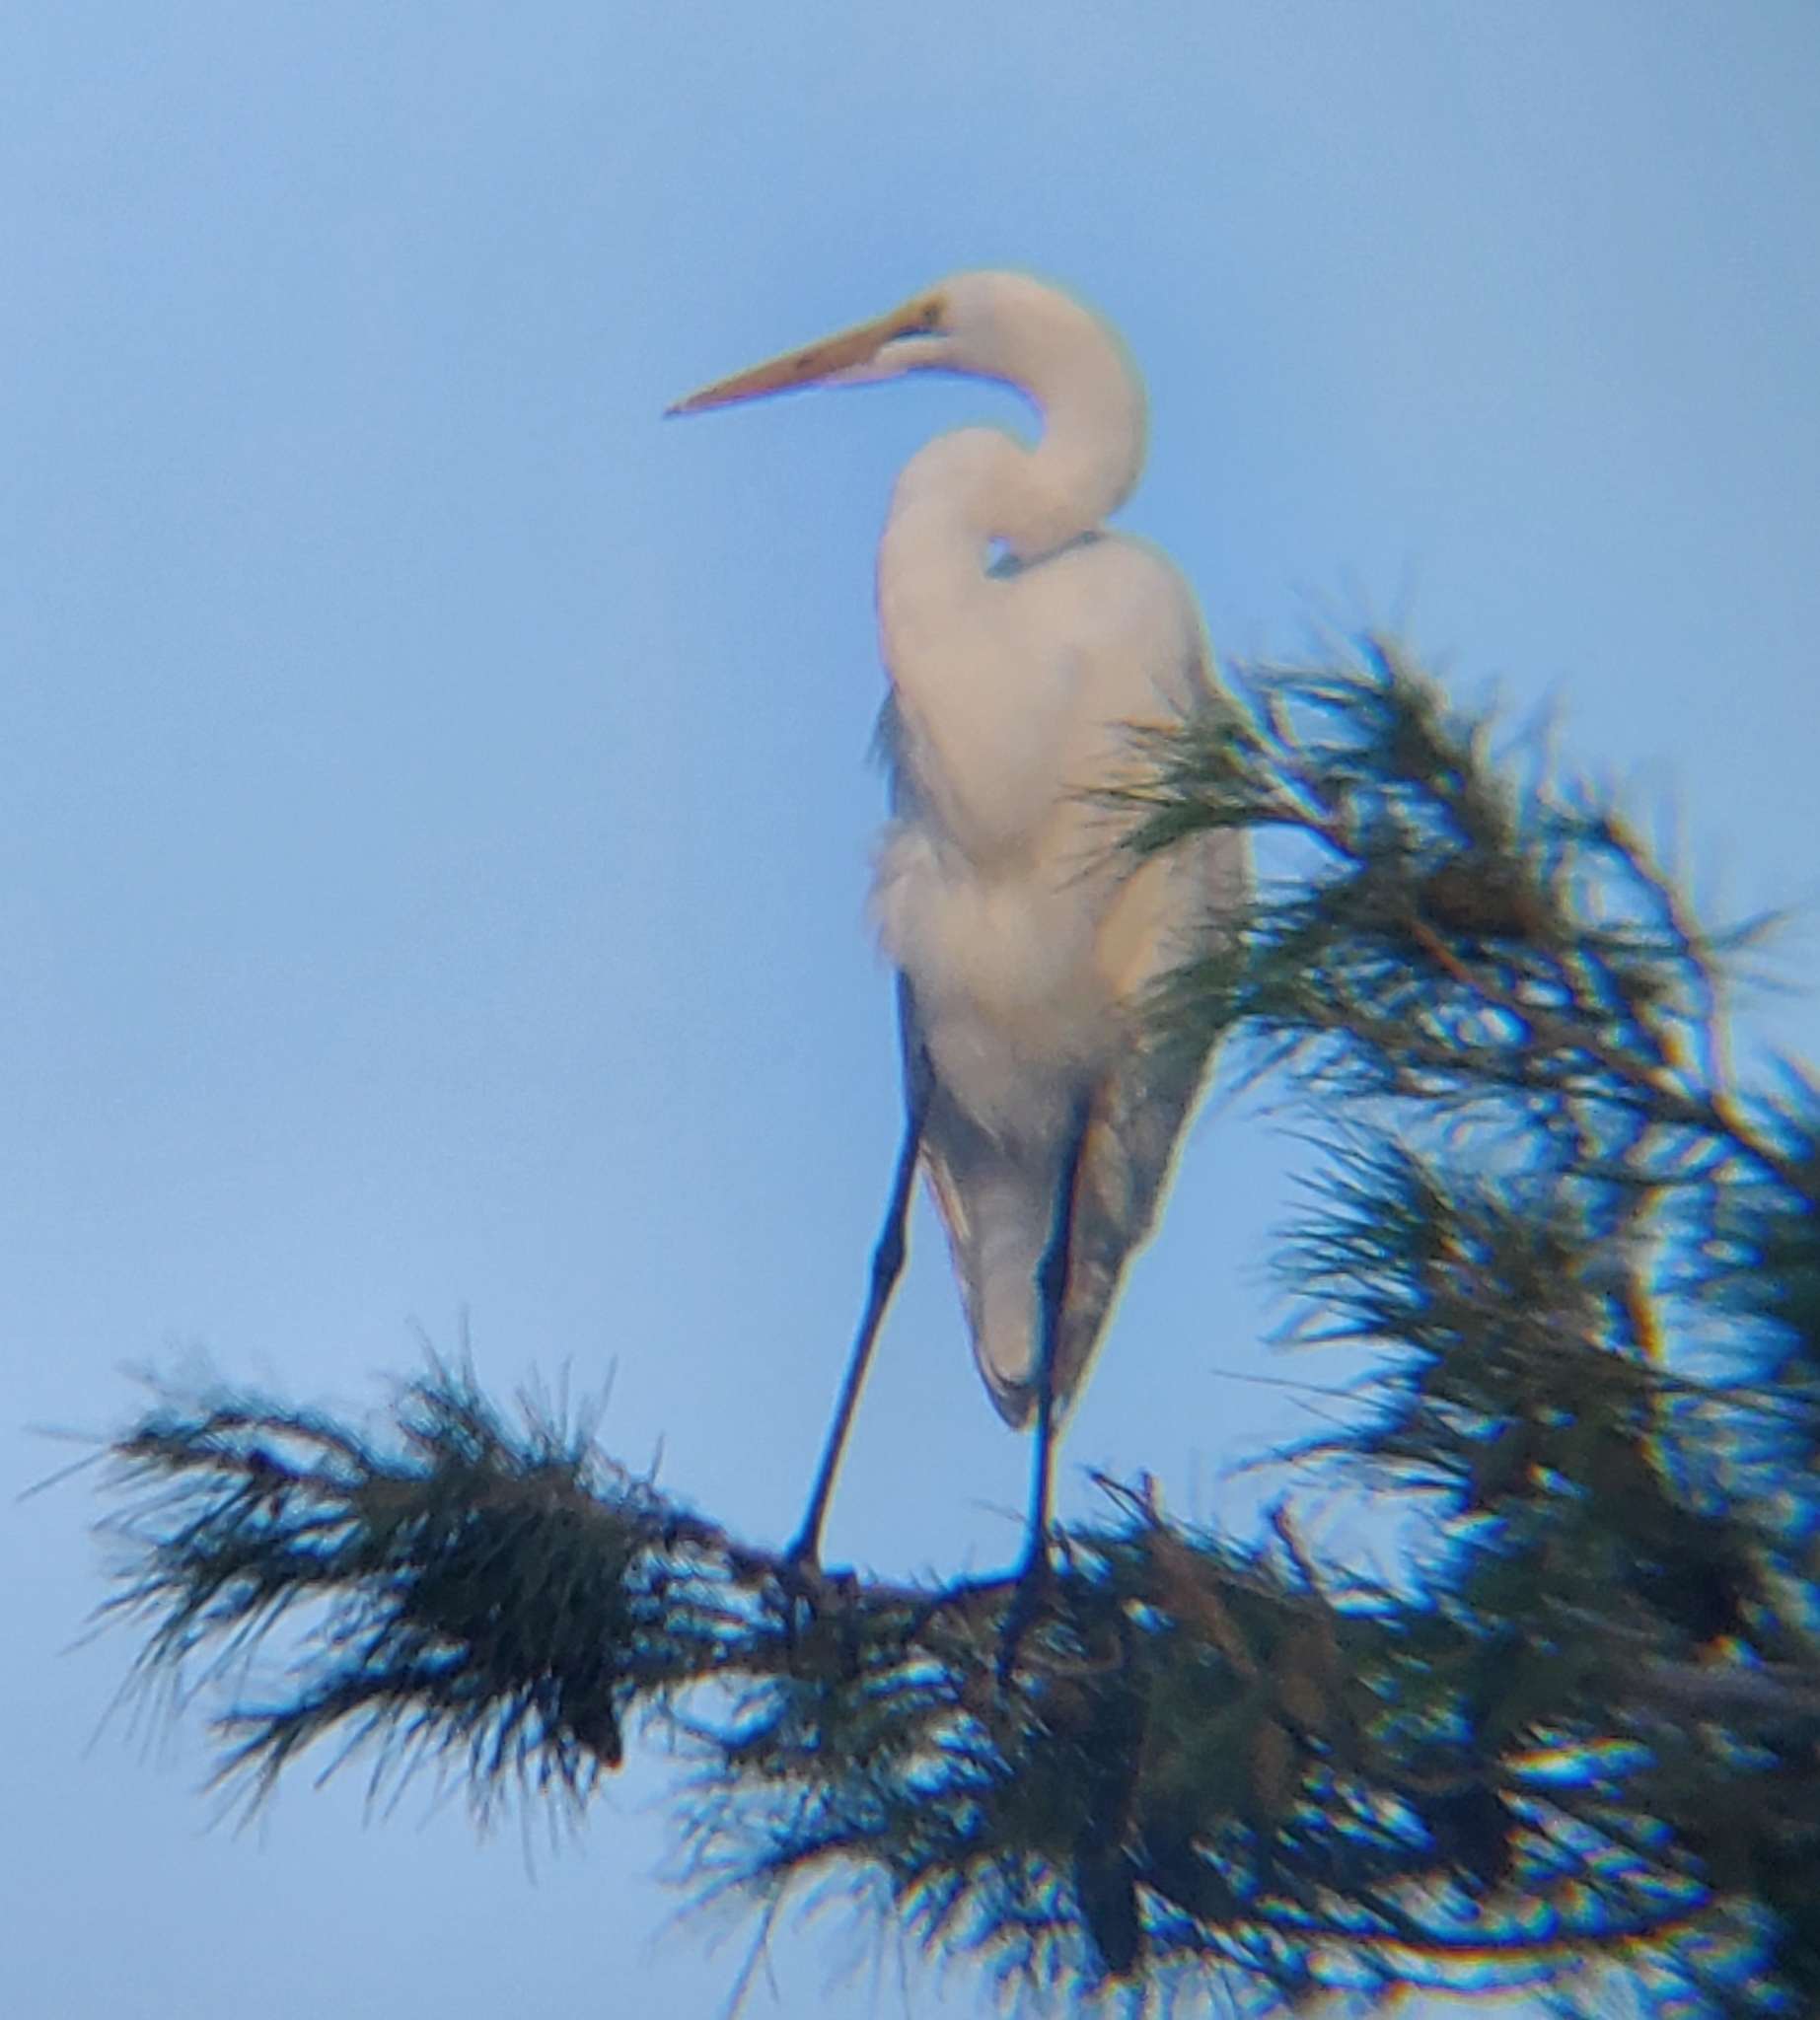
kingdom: Animalia
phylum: Chordata
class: Aves
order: Pelecaniformes
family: Ardeidae
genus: Ardea
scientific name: Ardea alba
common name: Great egret
